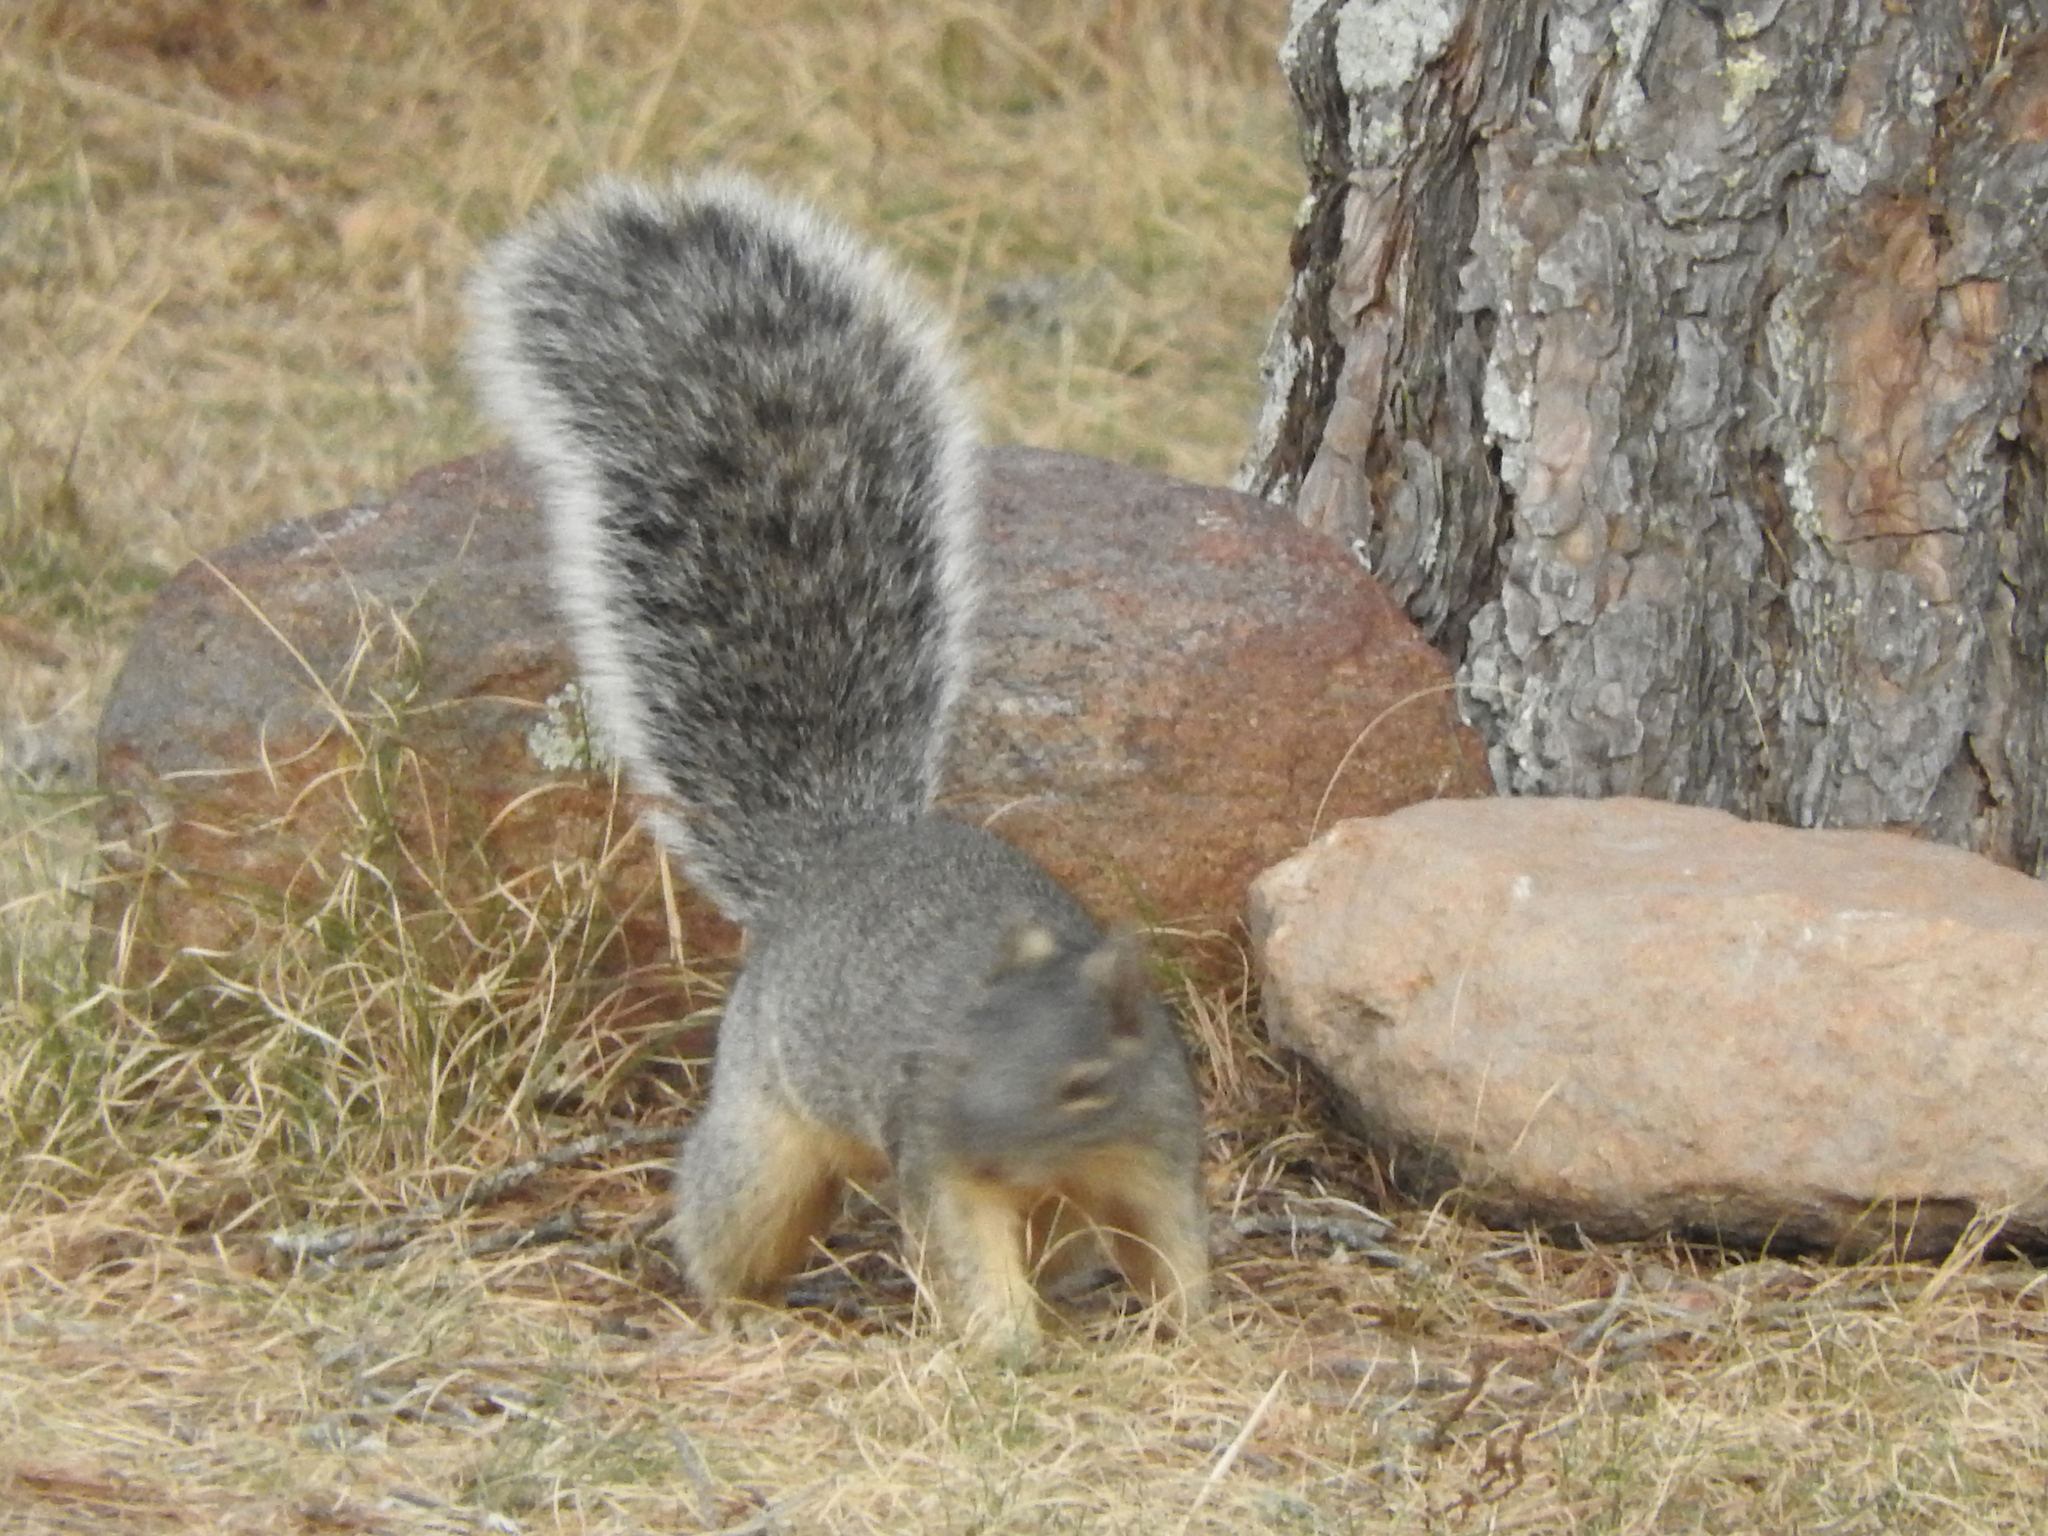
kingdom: Animalia
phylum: Chordata
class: Mammalia
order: Rodentia
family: Sciuridae
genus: Sciurus
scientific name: Sciurus oculatus
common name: Peters's squirrel
